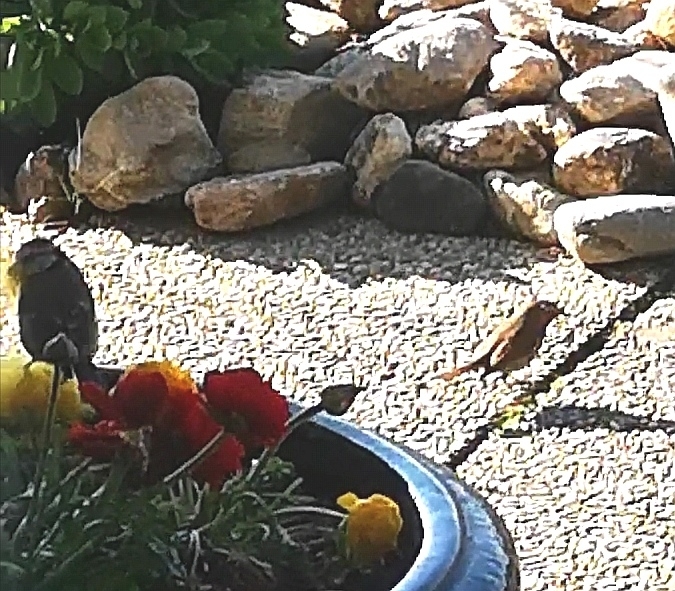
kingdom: Animalia
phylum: Chordata
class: Aves
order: Passeriformes
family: Paridae
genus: Cyanistes
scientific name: Cyanistes caeruleus
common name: Eurasian blue tit
